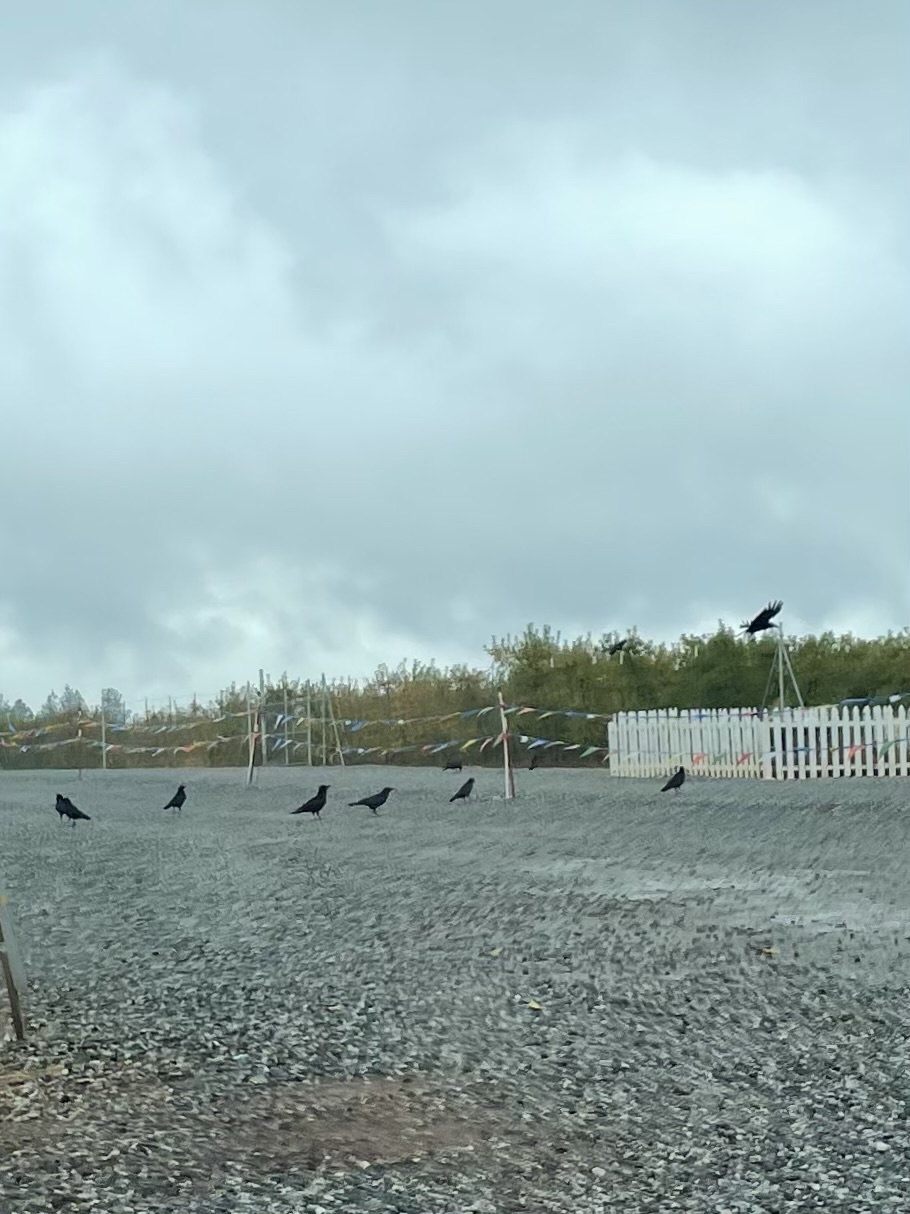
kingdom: Animalia
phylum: Chordata
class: Aves
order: Passeriformes
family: Corvidae
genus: Corvus
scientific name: Corvus brachyrhynchos
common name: American crow
